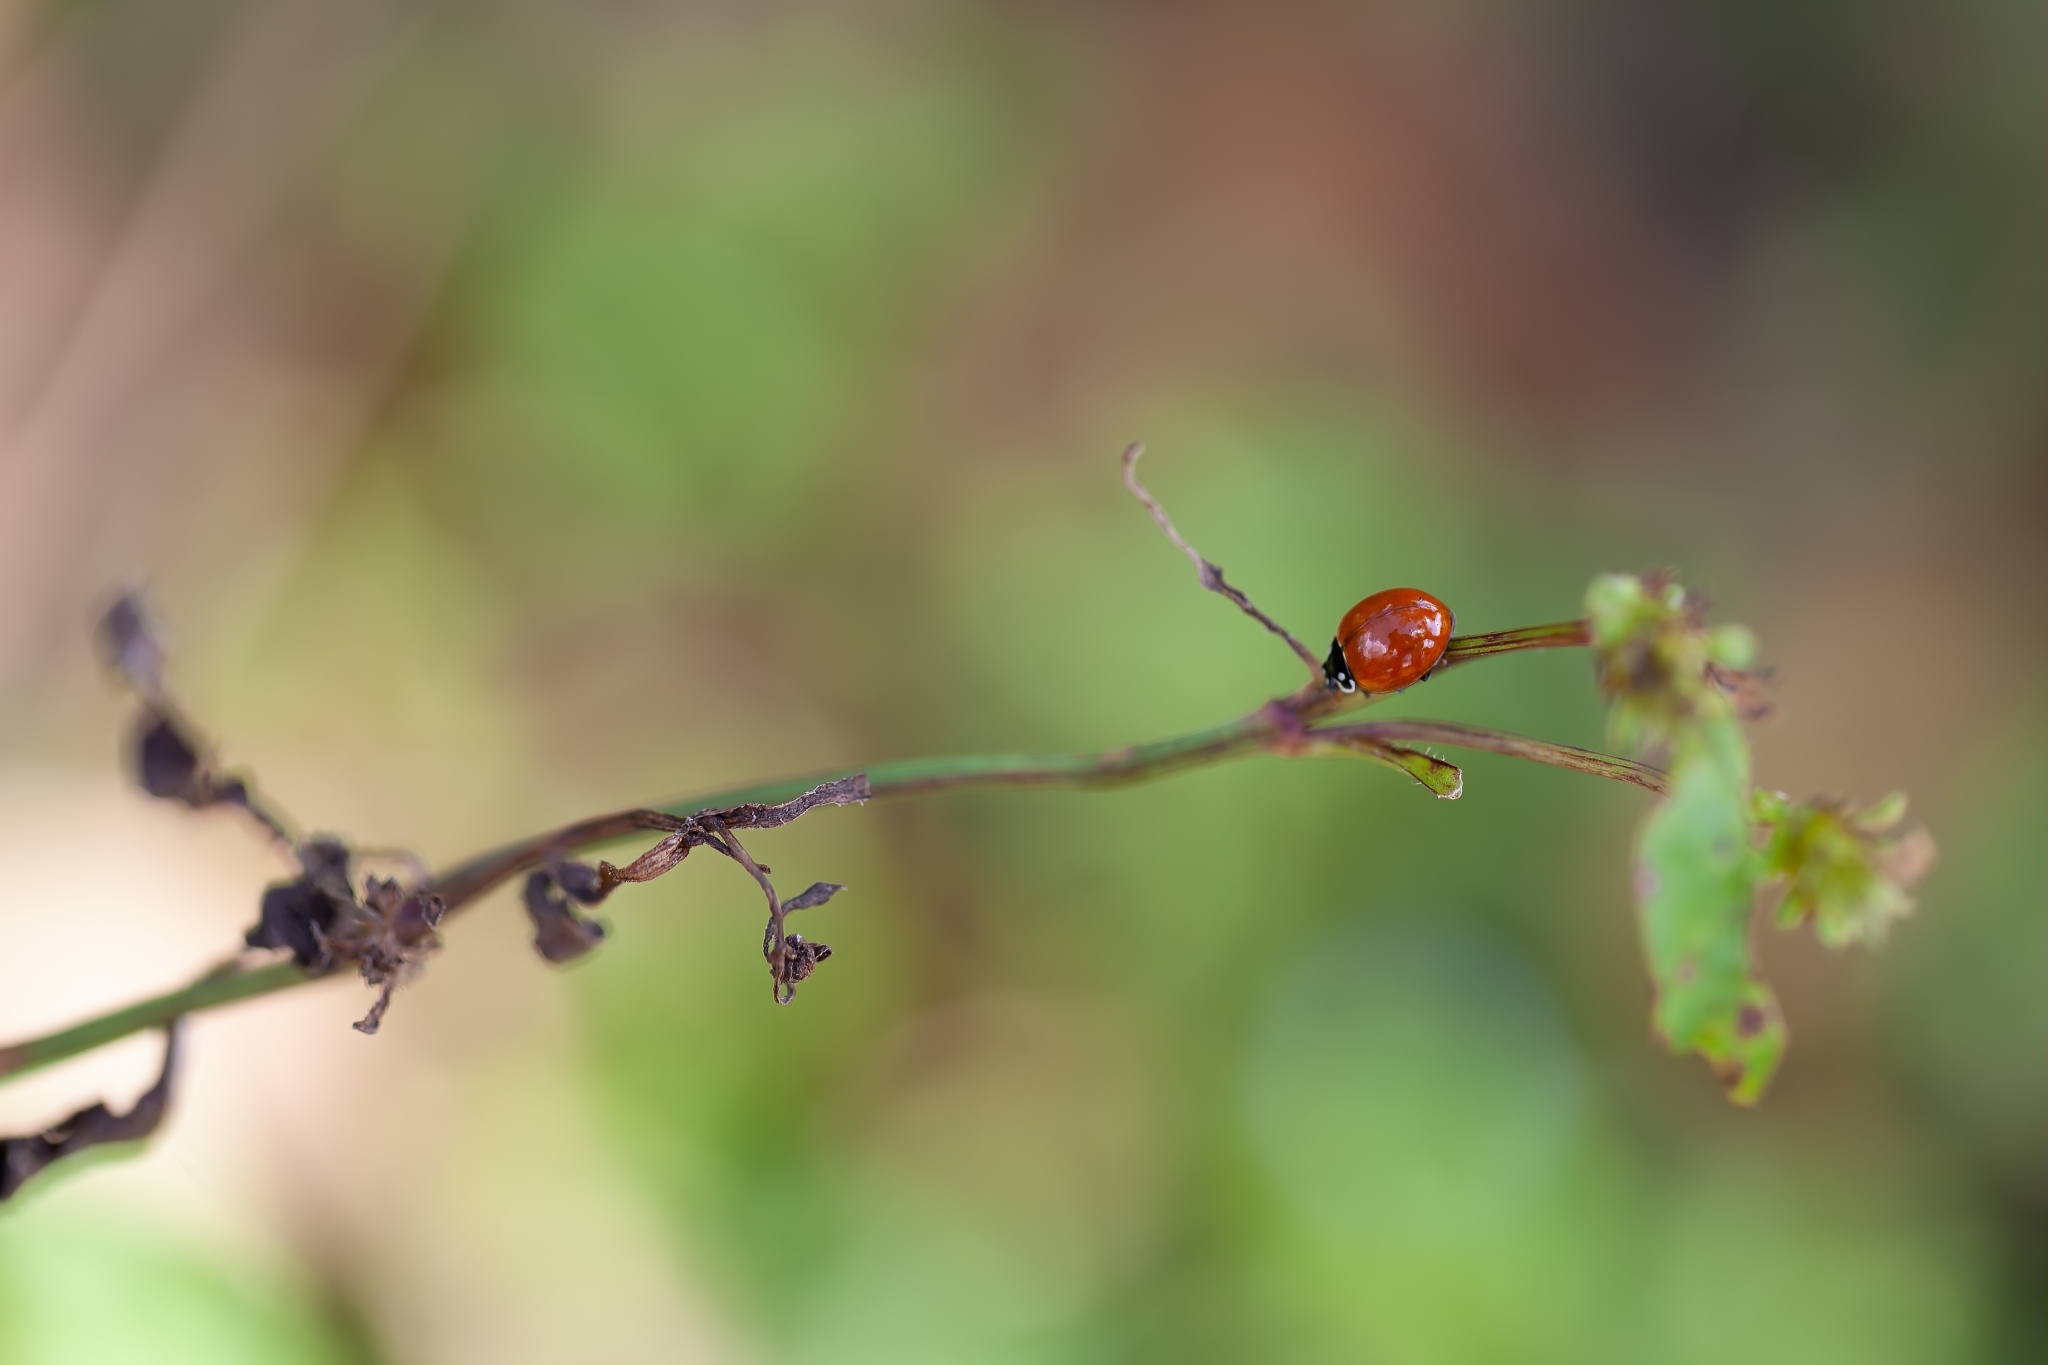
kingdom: Animalia
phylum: Arthropoda
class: Insecta
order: Coleoptera
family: Coccinellidae
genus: Cycloneda
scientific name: Cycloneda sanguinea
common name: Ladybird beetle
